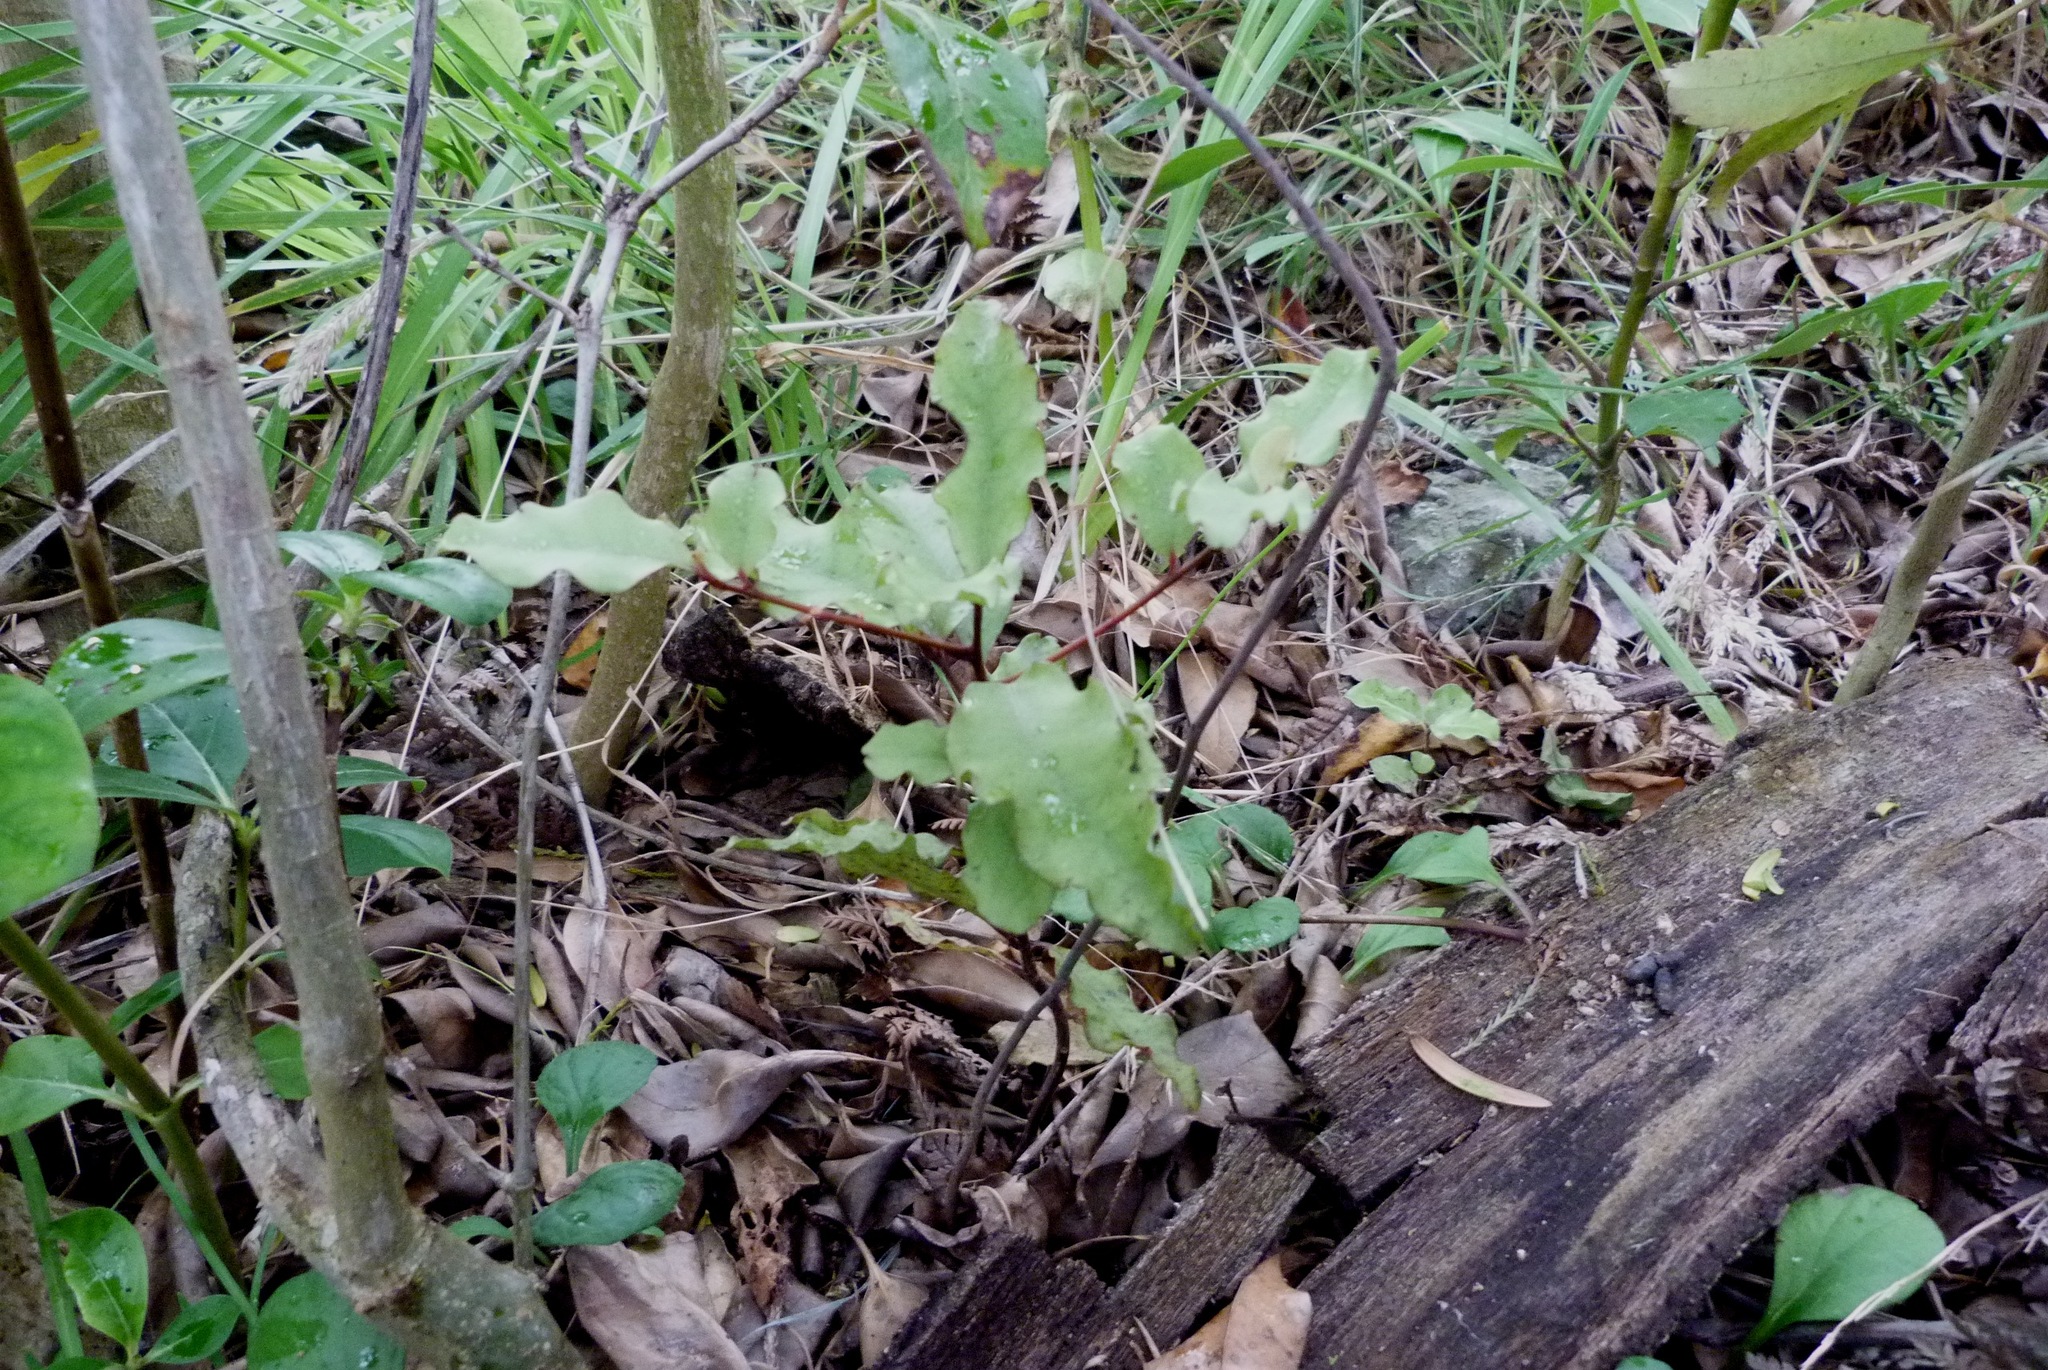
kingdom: Plantae
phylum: Tracheophyta
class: Magnoliopsida
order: Ericales
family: Primulaceae
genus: Myrsine
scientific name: Myrsine australis
